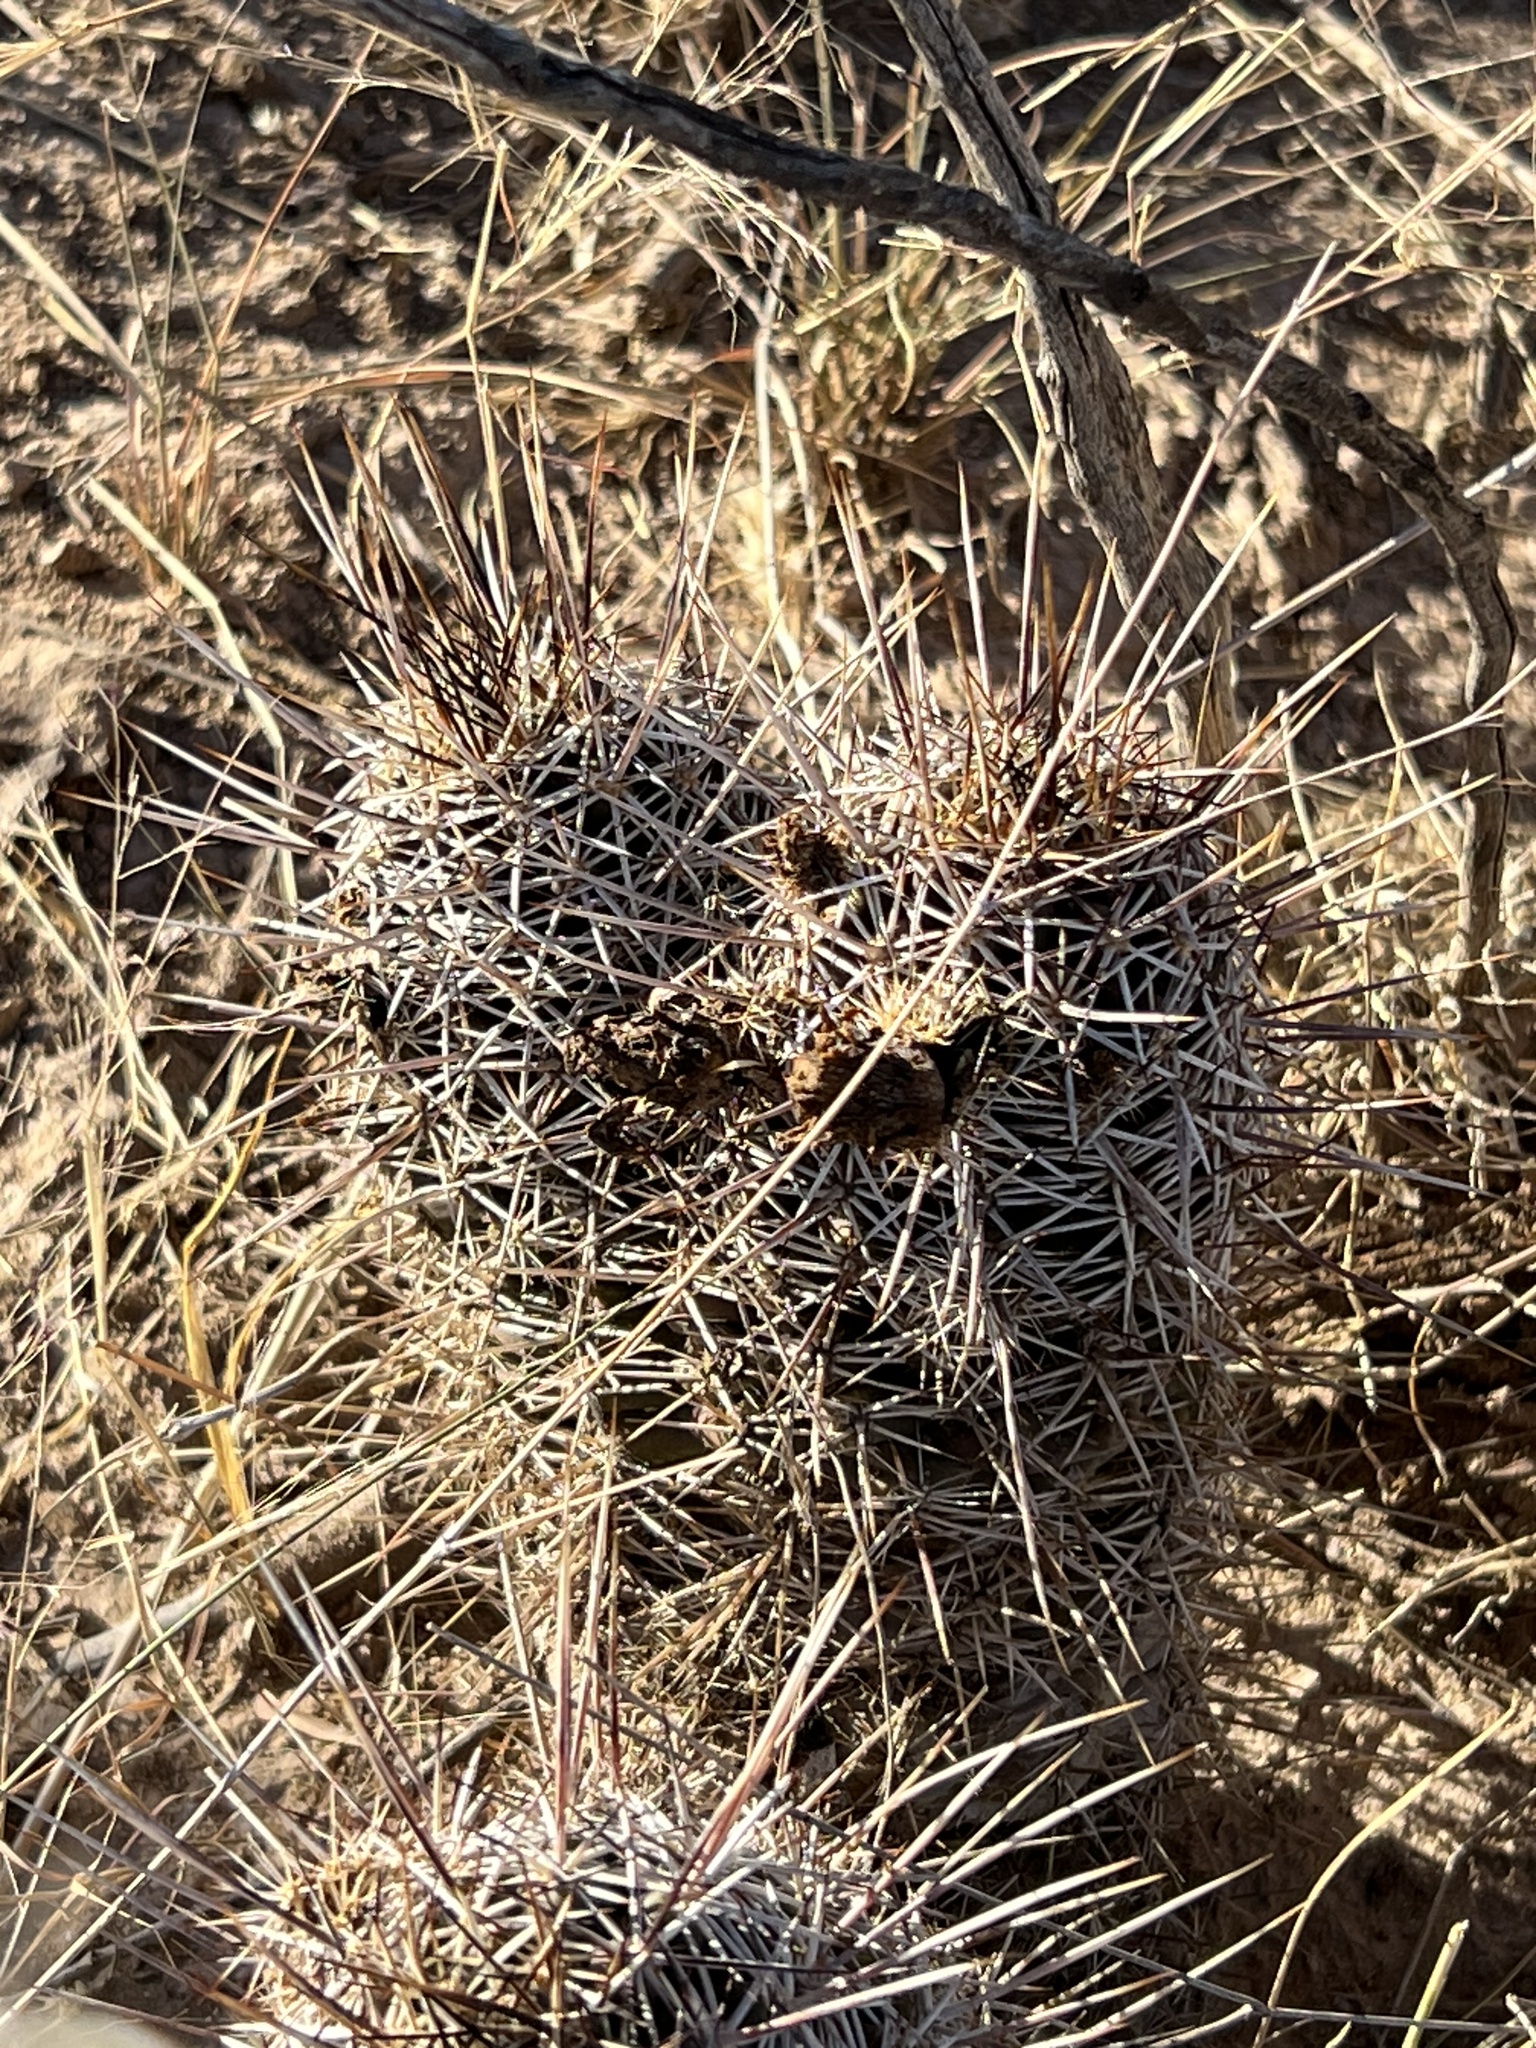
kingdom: Plantae
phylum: Tracheophyta
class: Magnoliopsida
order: Caryophyllales
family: Cactaceae
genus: Echinocereus
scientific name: Echinocereus fendleri
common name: Fendler's hedgehog cactus
